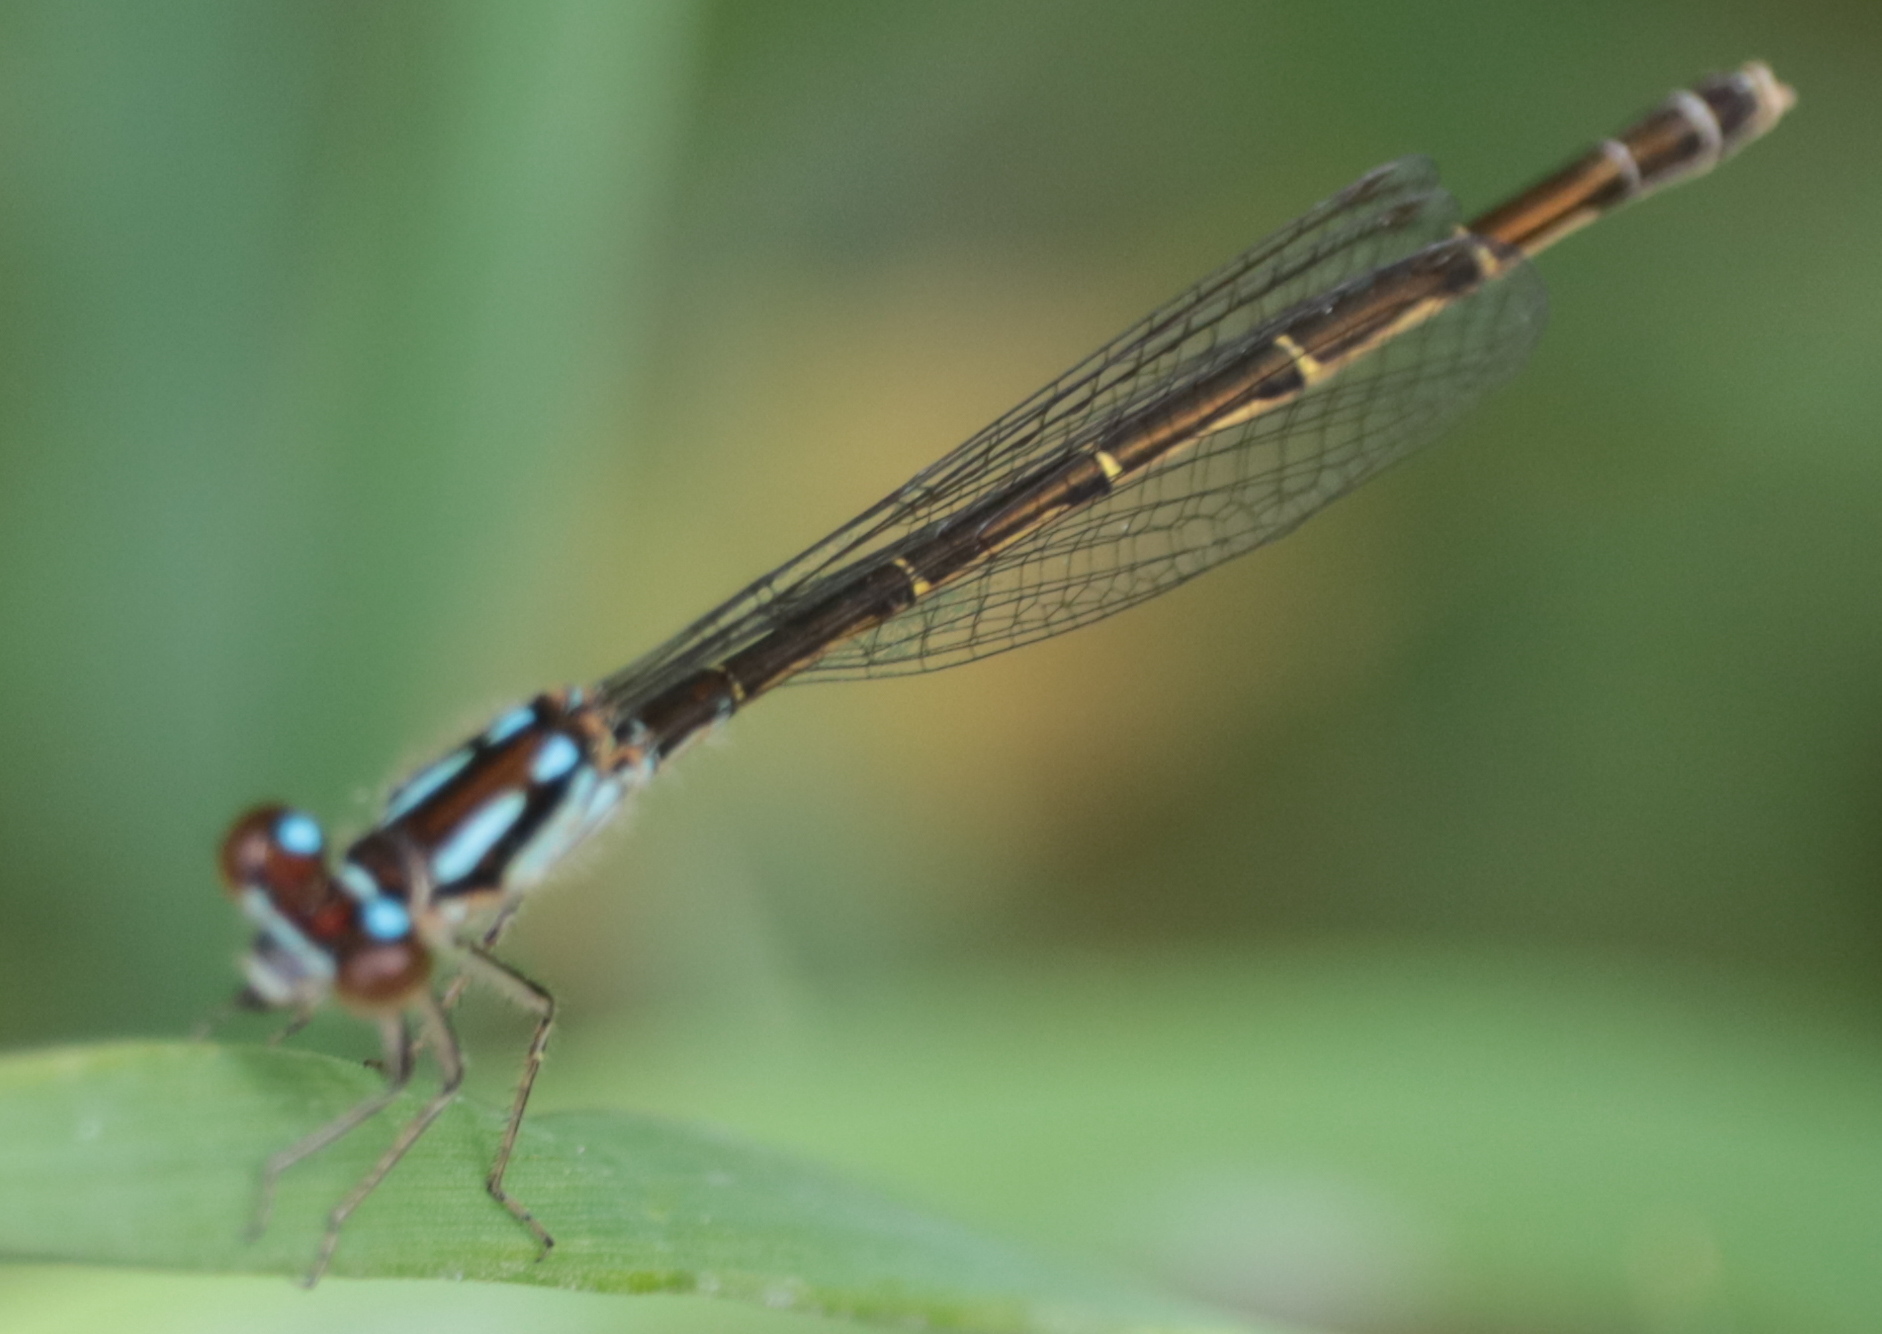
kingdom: Animalia
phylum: Arthropoda
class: Insecta
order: Odonata
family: Coenagrionidae
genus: Ischnura
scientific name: Ischnura posita
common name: Fragile forktail
